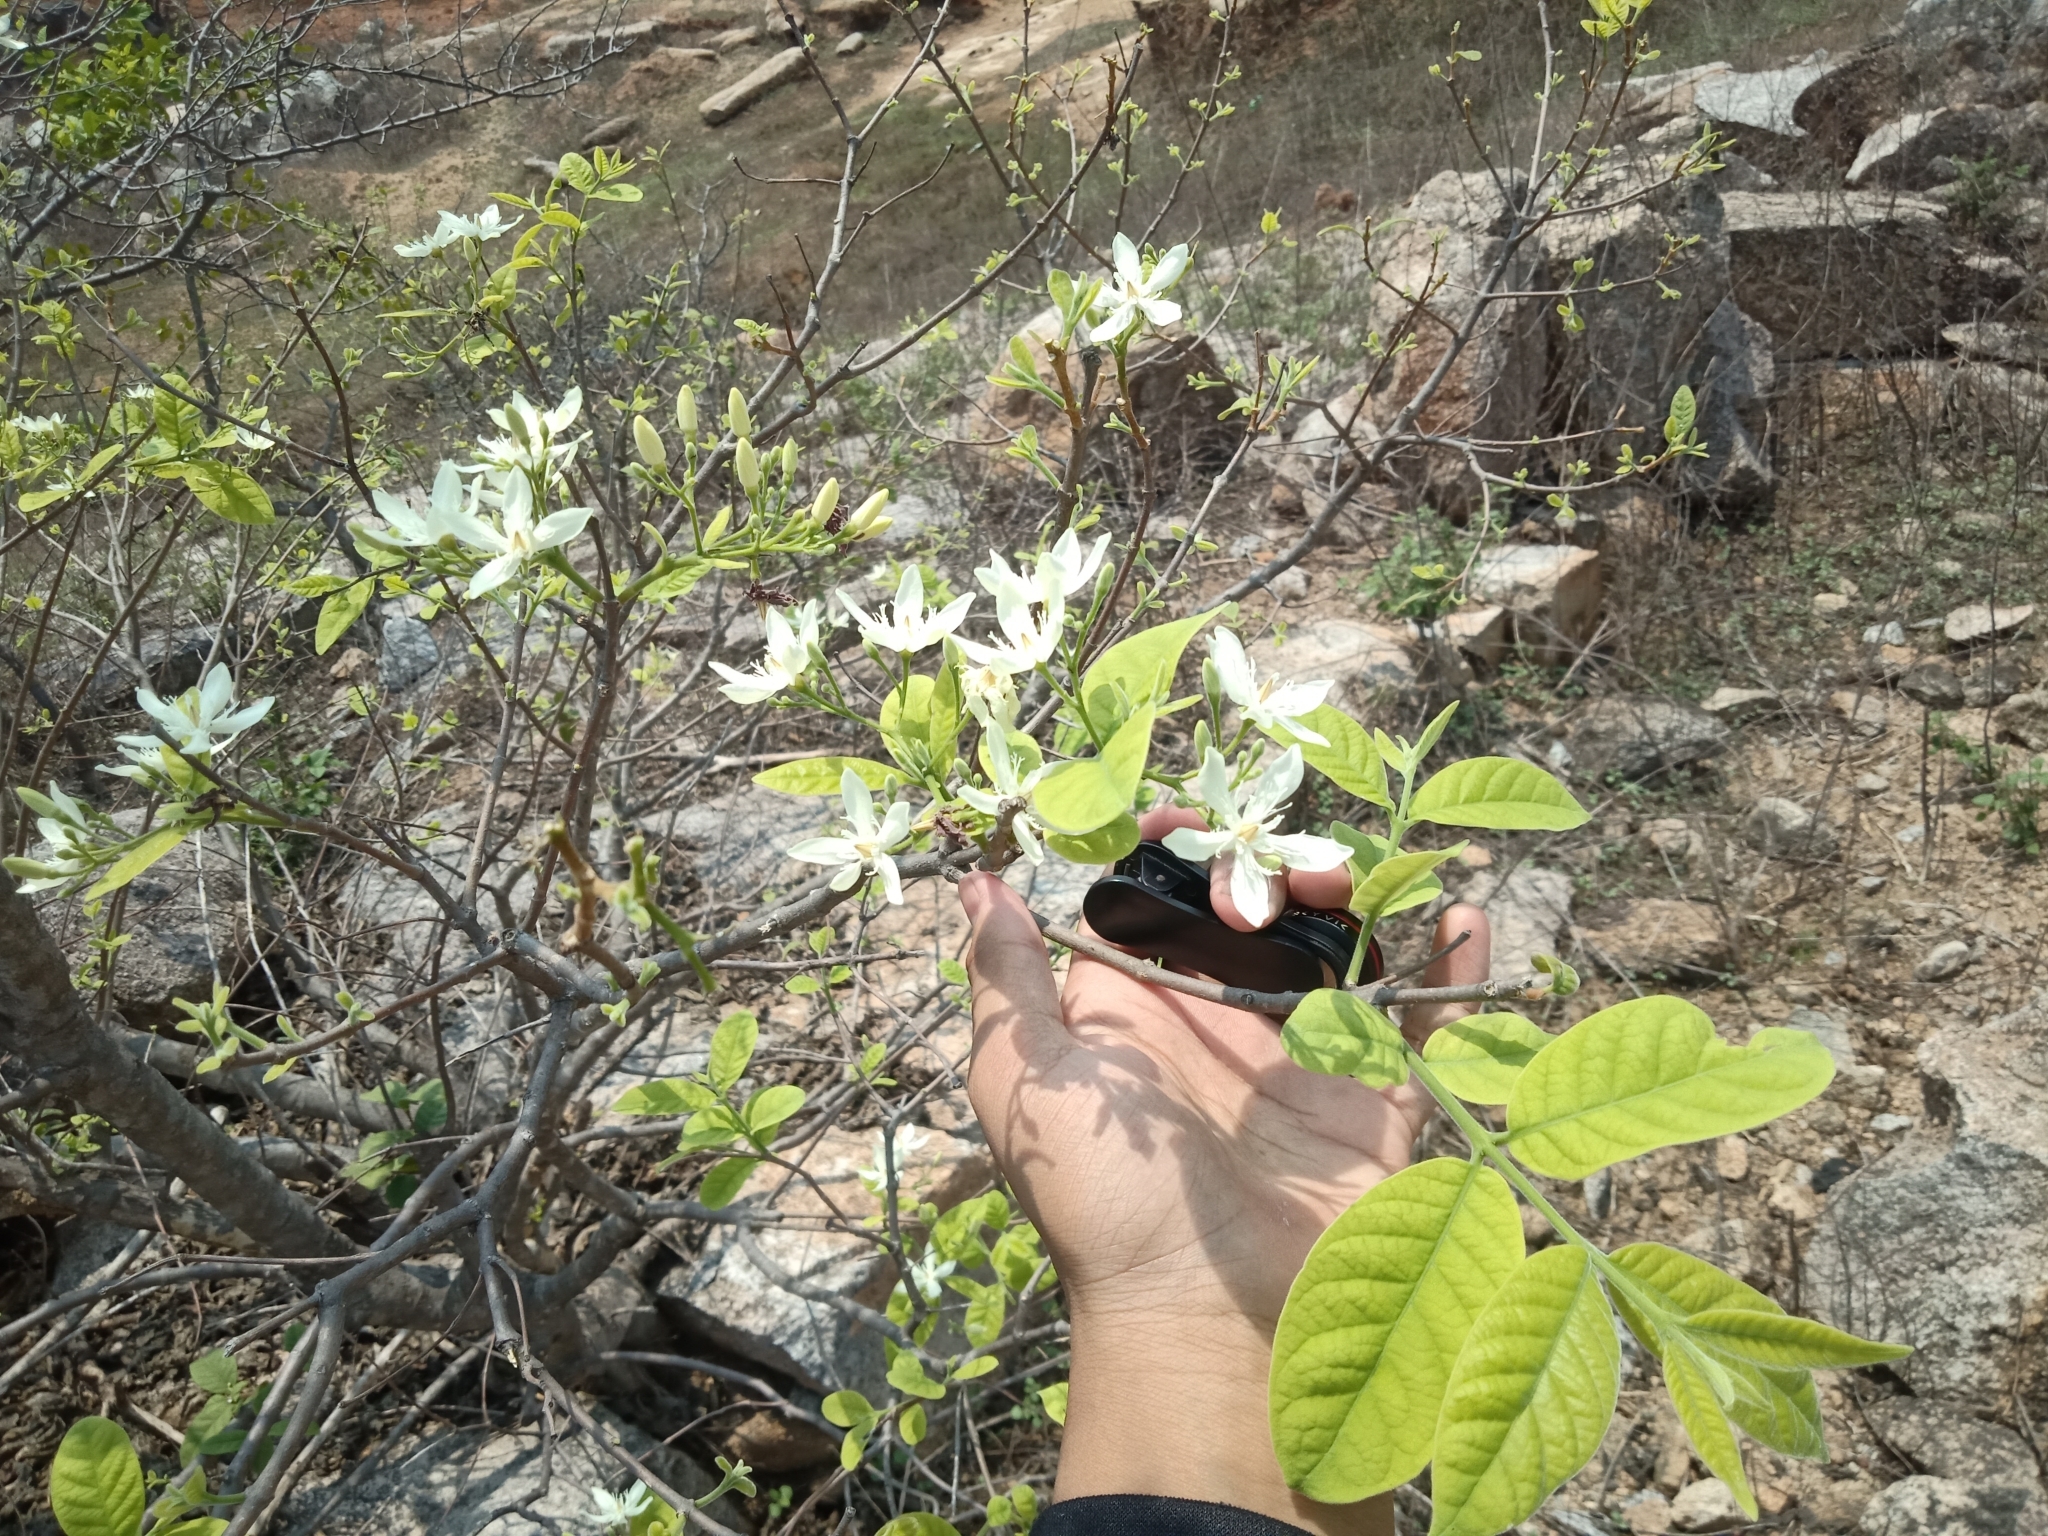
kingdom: Plantae
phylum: Tracheophyta
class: Magnoliopsida
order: Gentianales
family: Apocynaceae
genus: Wrightia
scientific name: Wrightia tinctoria
